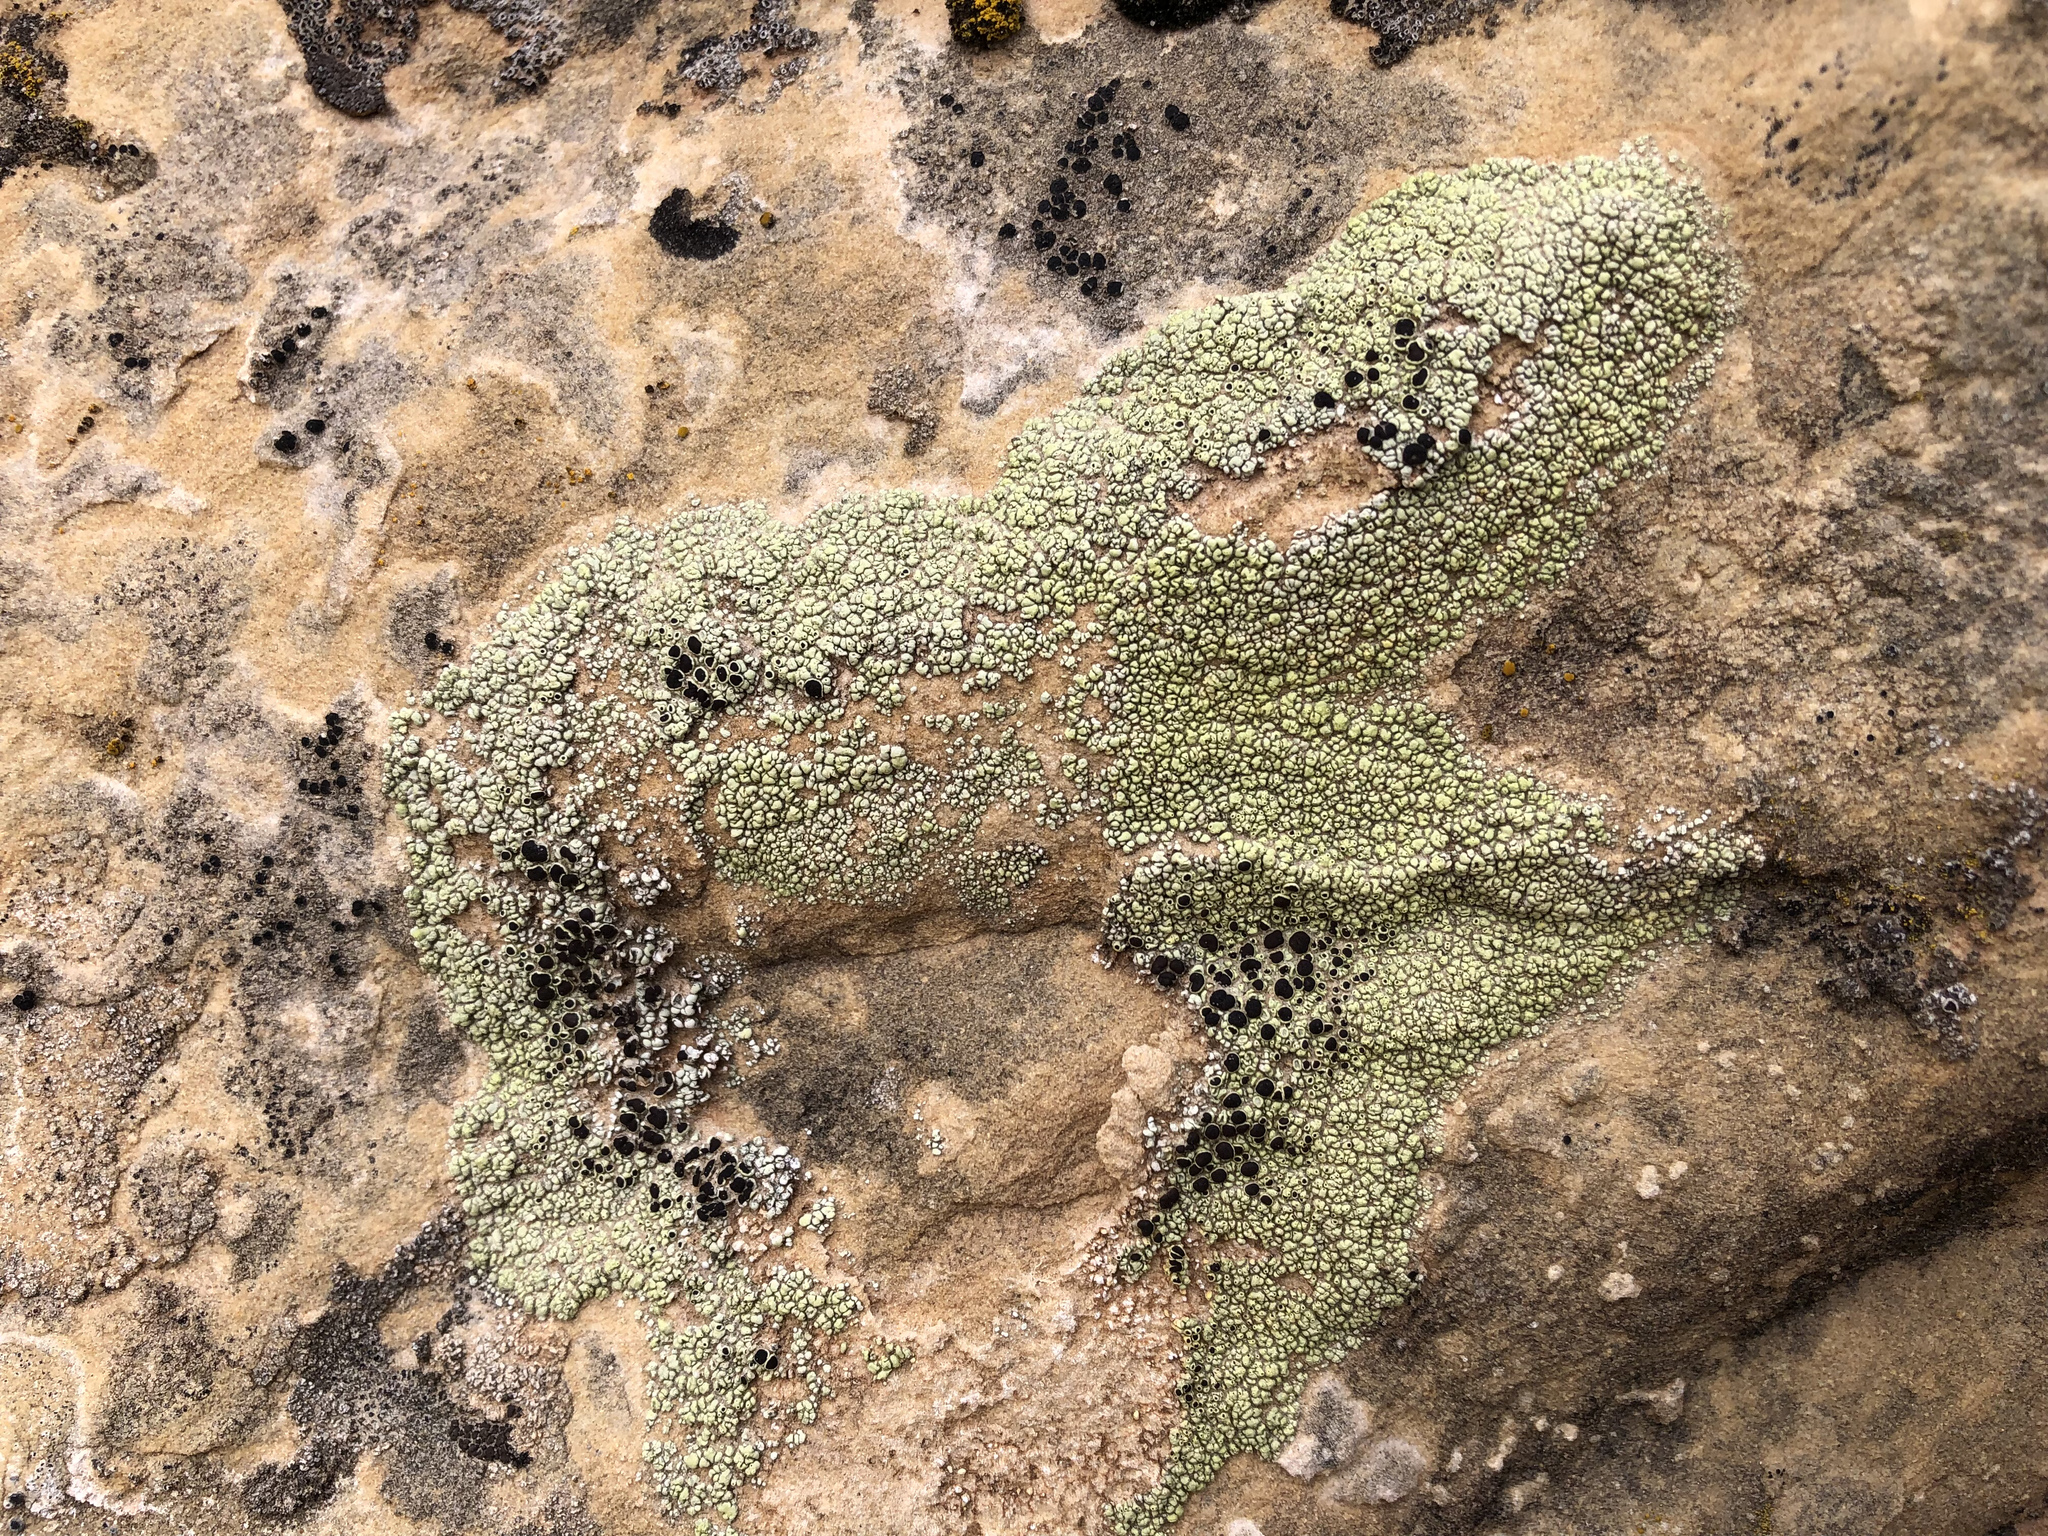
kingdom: Fungi
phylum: Ascomycota
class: Lecanoromycetes
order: Lecanorales
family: Lecanoraceae
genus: Lecanora
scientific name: Lecanora argopholis
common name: Varying rim lichen
